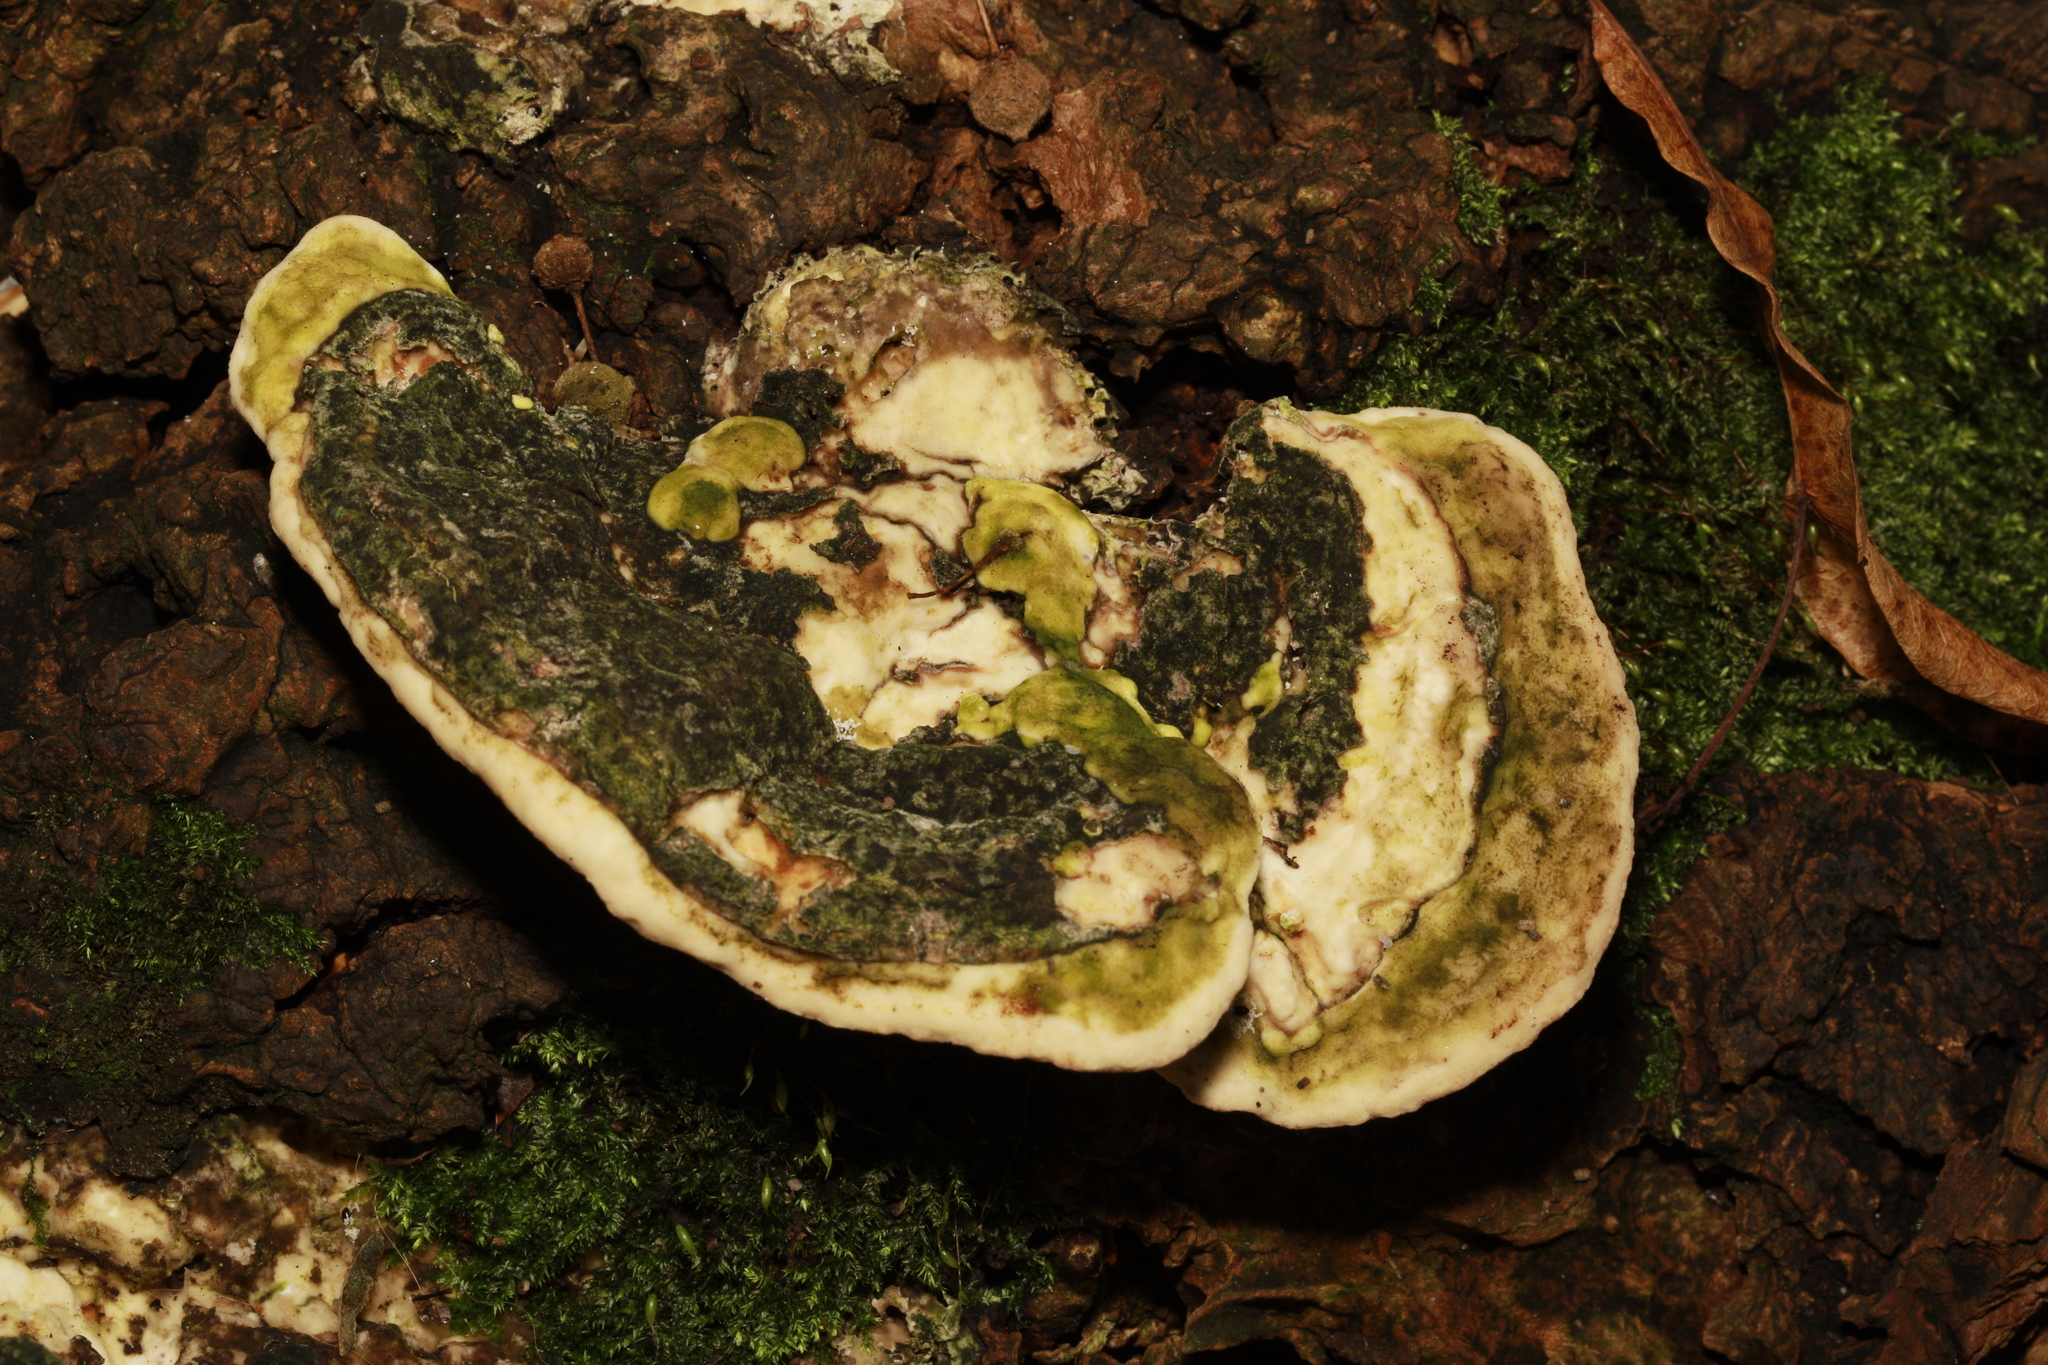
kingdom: Fungi
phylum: Basidiomycota
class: Agaricomycetes
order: Polyporales
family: Polyporaceae
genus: Trametes
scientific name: Trametes gibbosa
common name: Lumpy bracket
